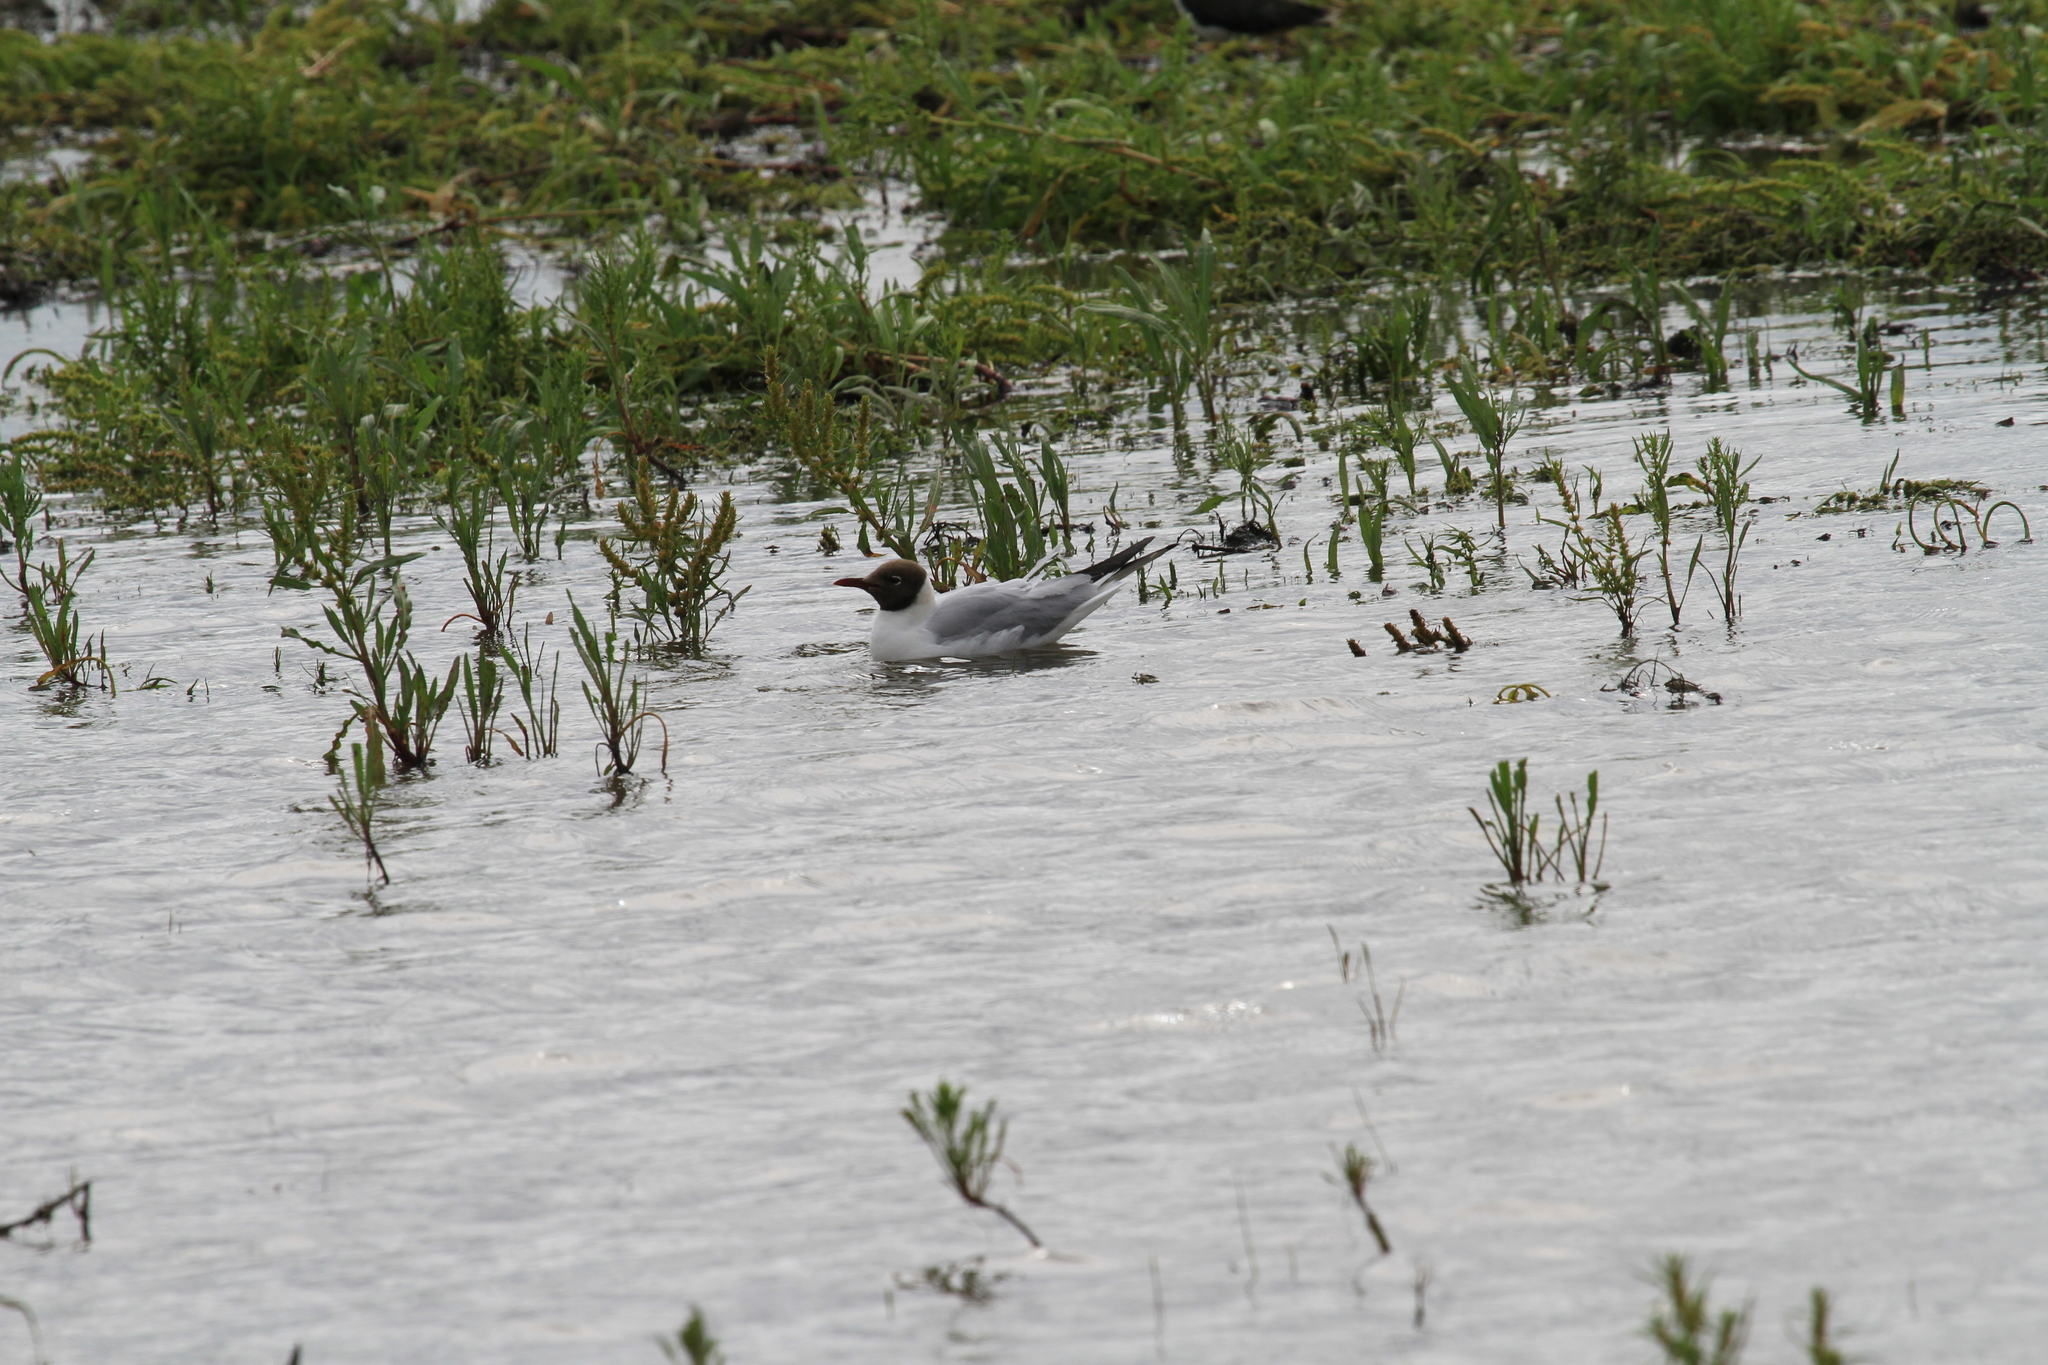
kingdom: Animalia
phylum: Chordata
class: Aves
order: Charadriiformes
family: Laridae
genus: Chroicocephalus
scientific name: Chroicocephalus ridibundus
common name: Black-headed gull
